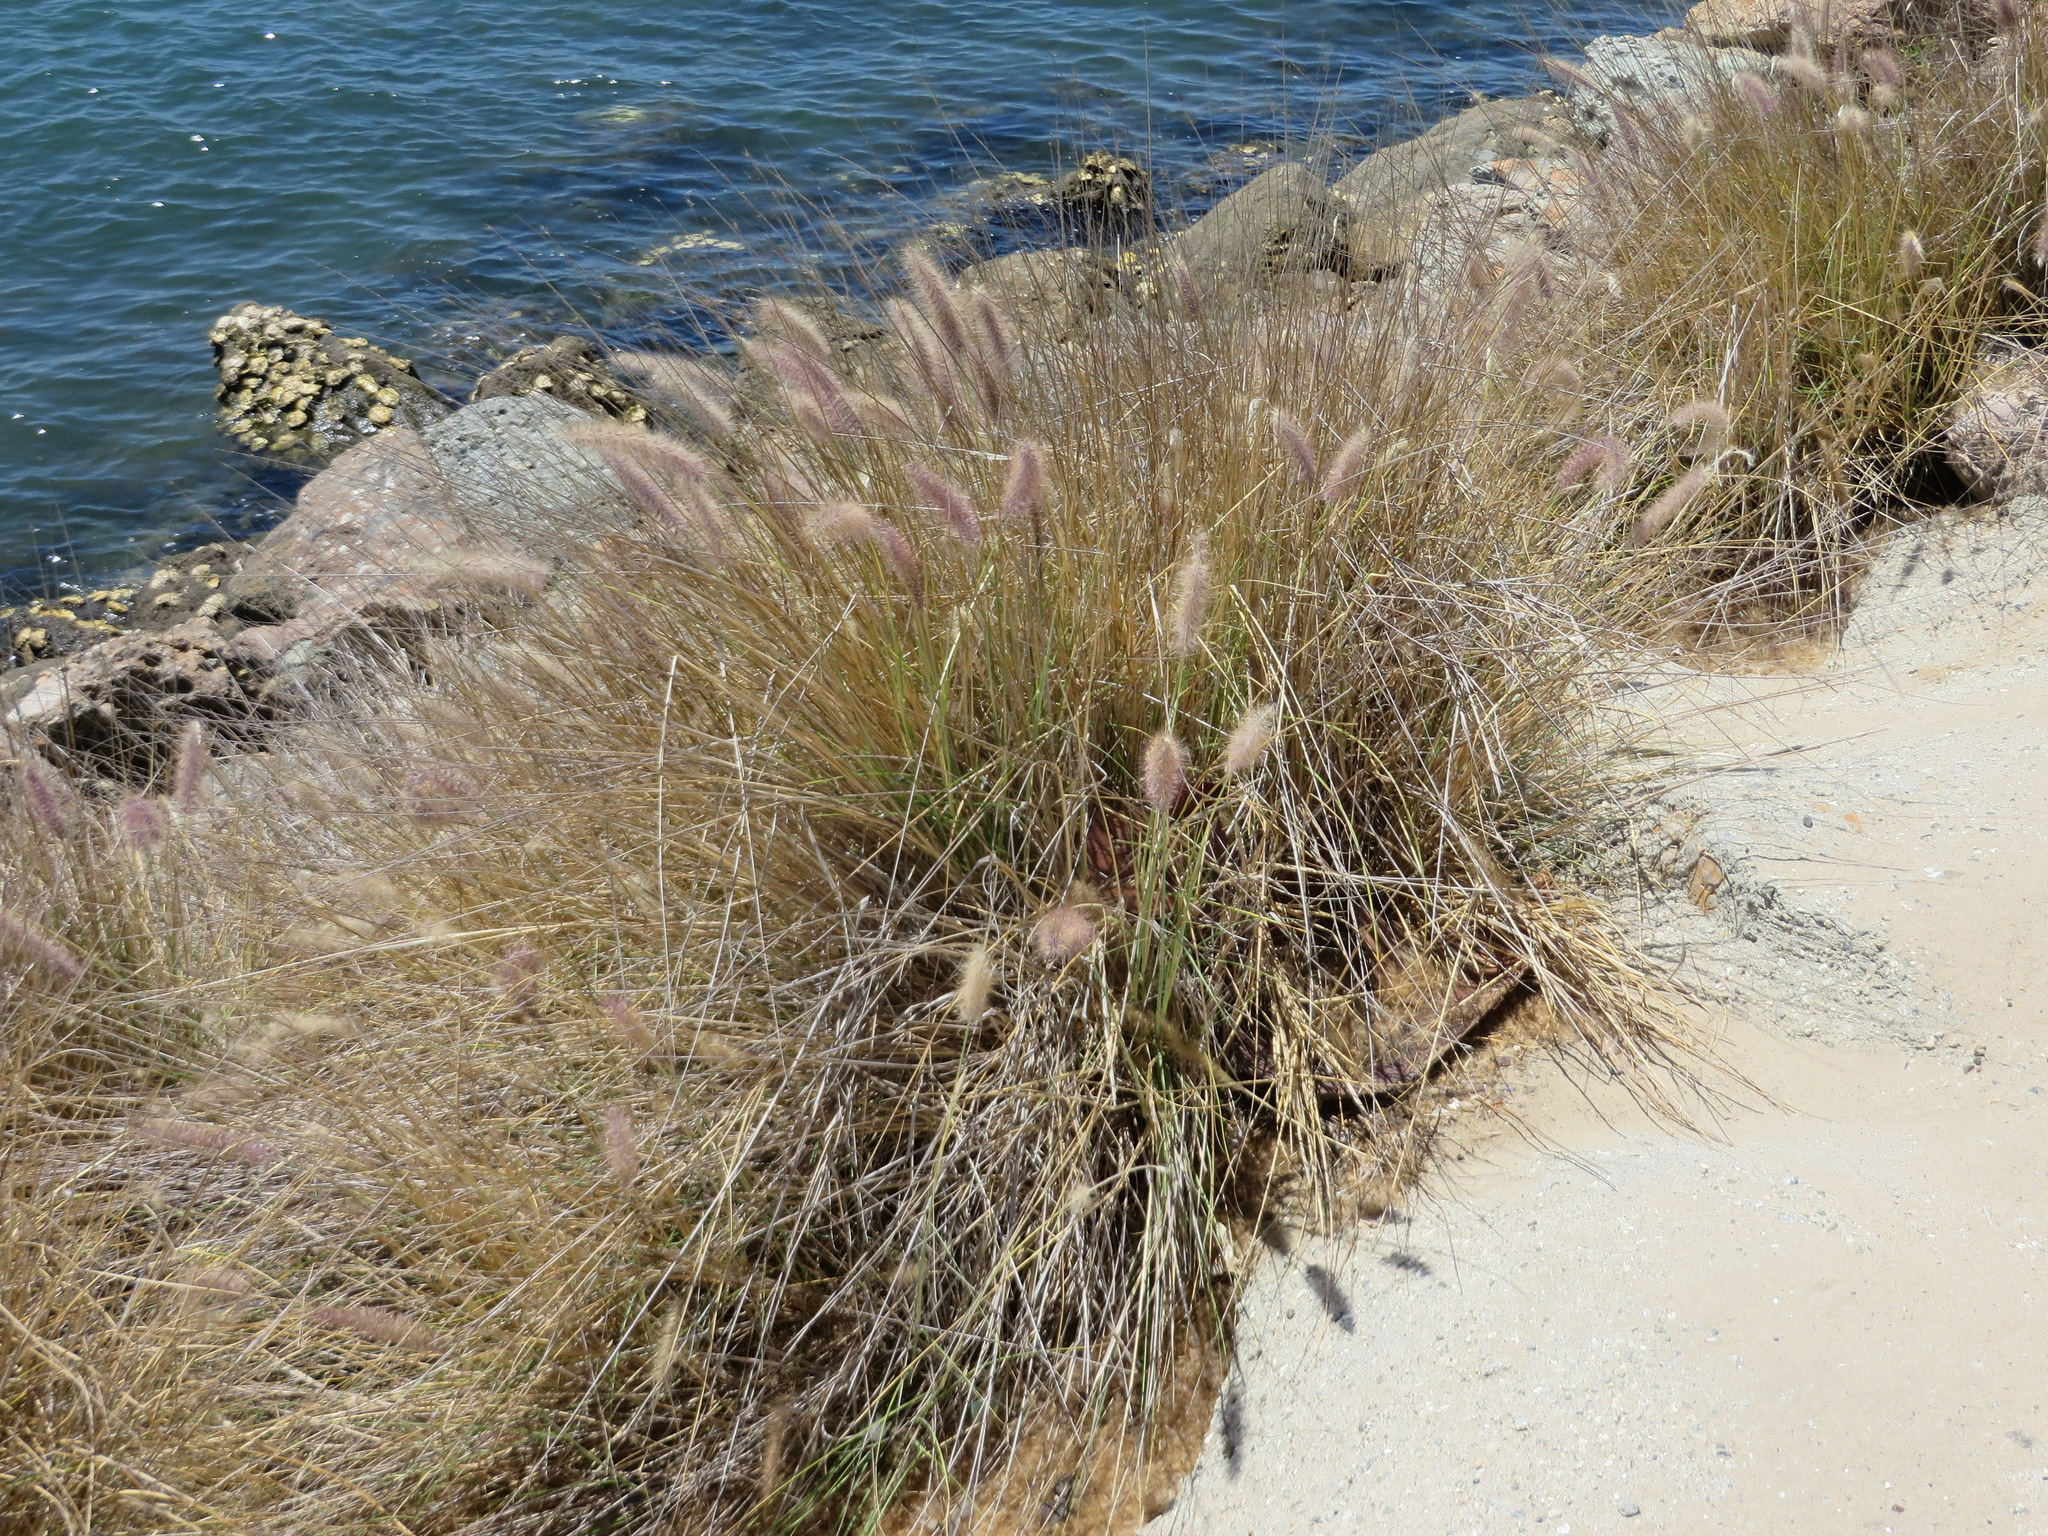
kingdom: Plantae
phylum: Tracheophyta
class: Liliopsida
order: Poales
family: Poaceae
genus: Cenchrus
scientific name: Cenchrus setaceus
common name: Crimson fountaingrass
